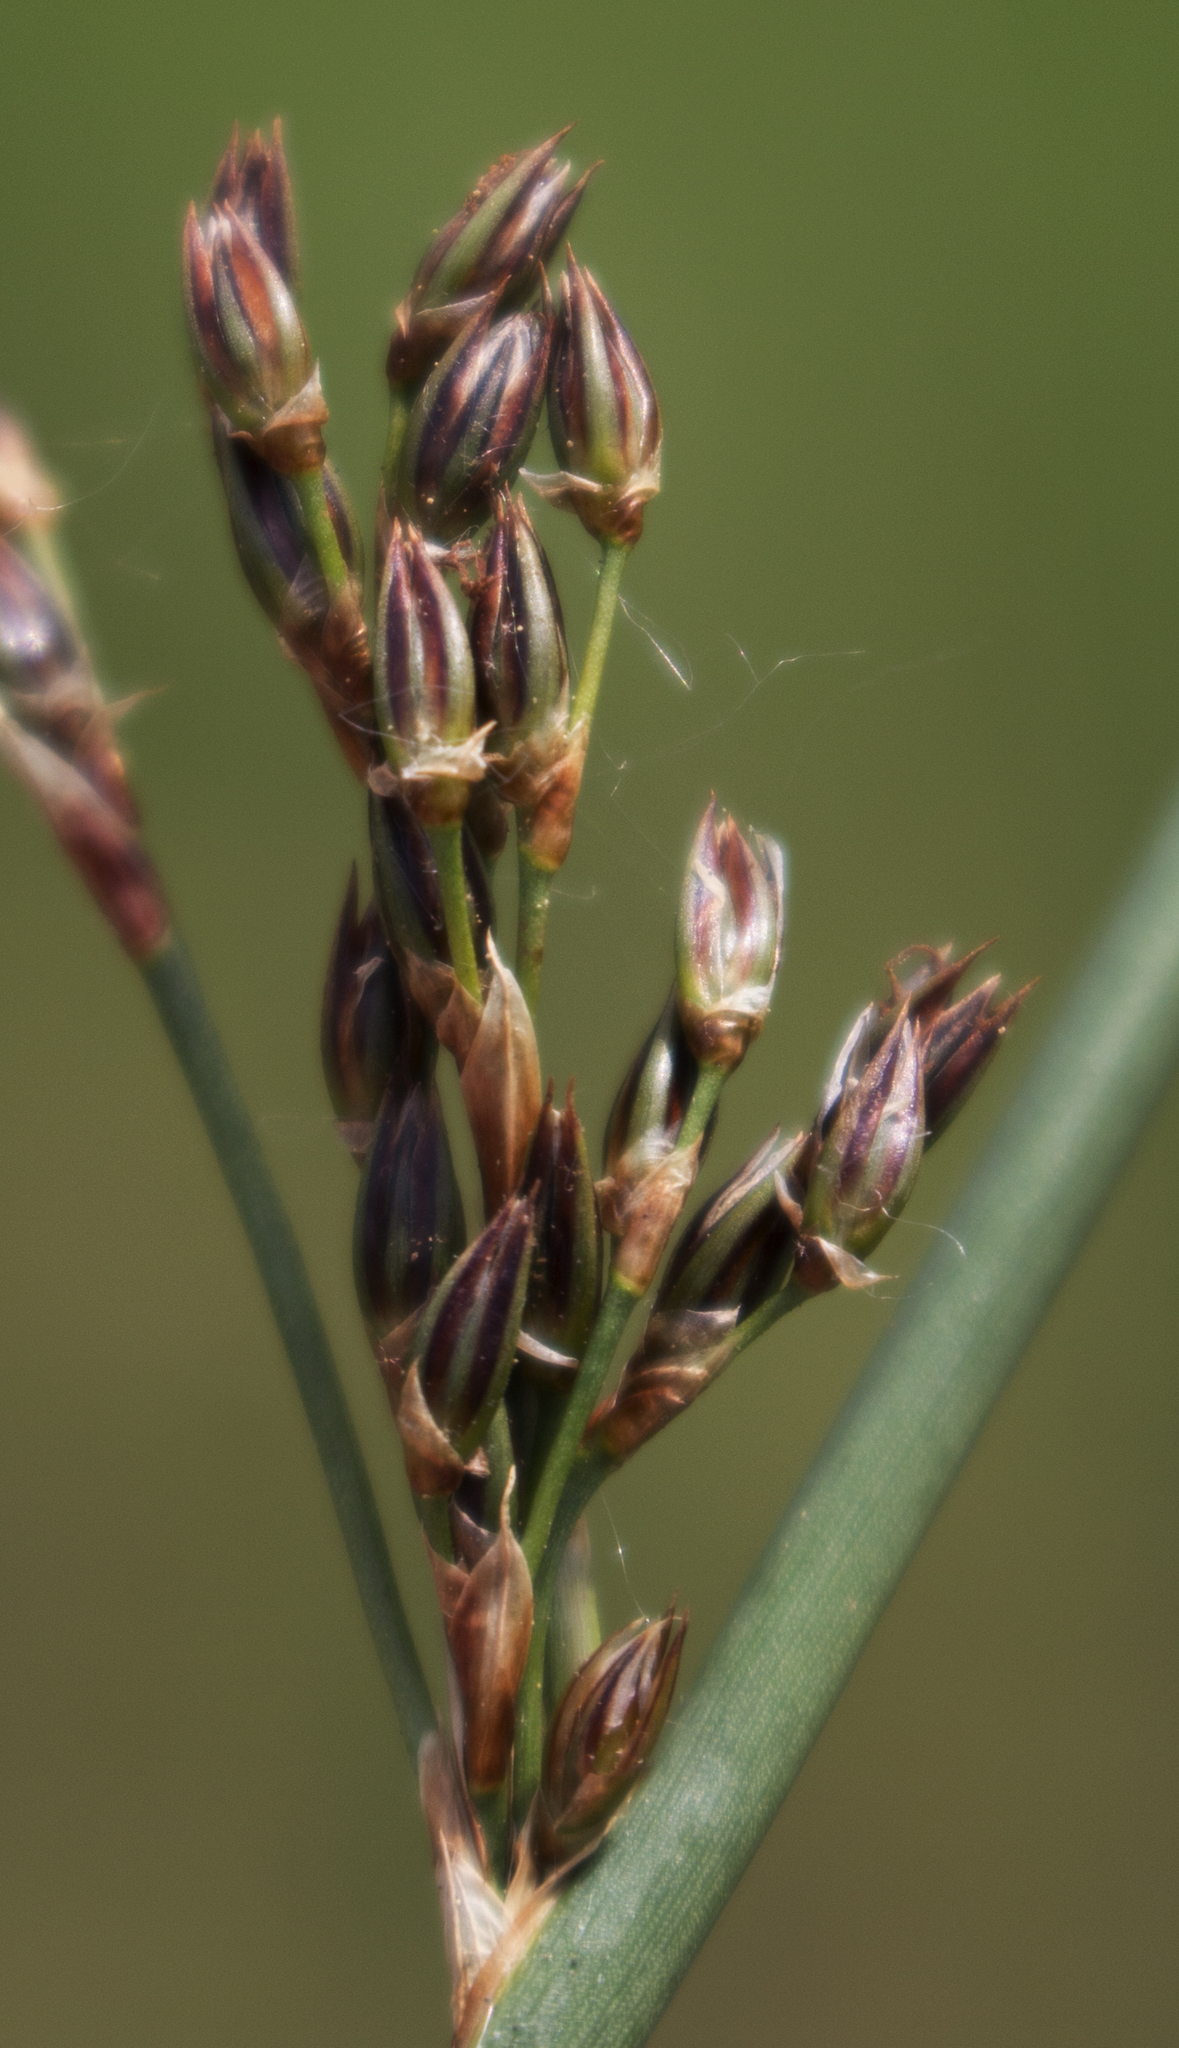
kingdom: Plantae
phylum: Tracheophyta
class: Liliopsida
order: Poales
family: Juncaceae
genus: Juncus
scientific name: Juncus balticus
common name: Baltic rush
